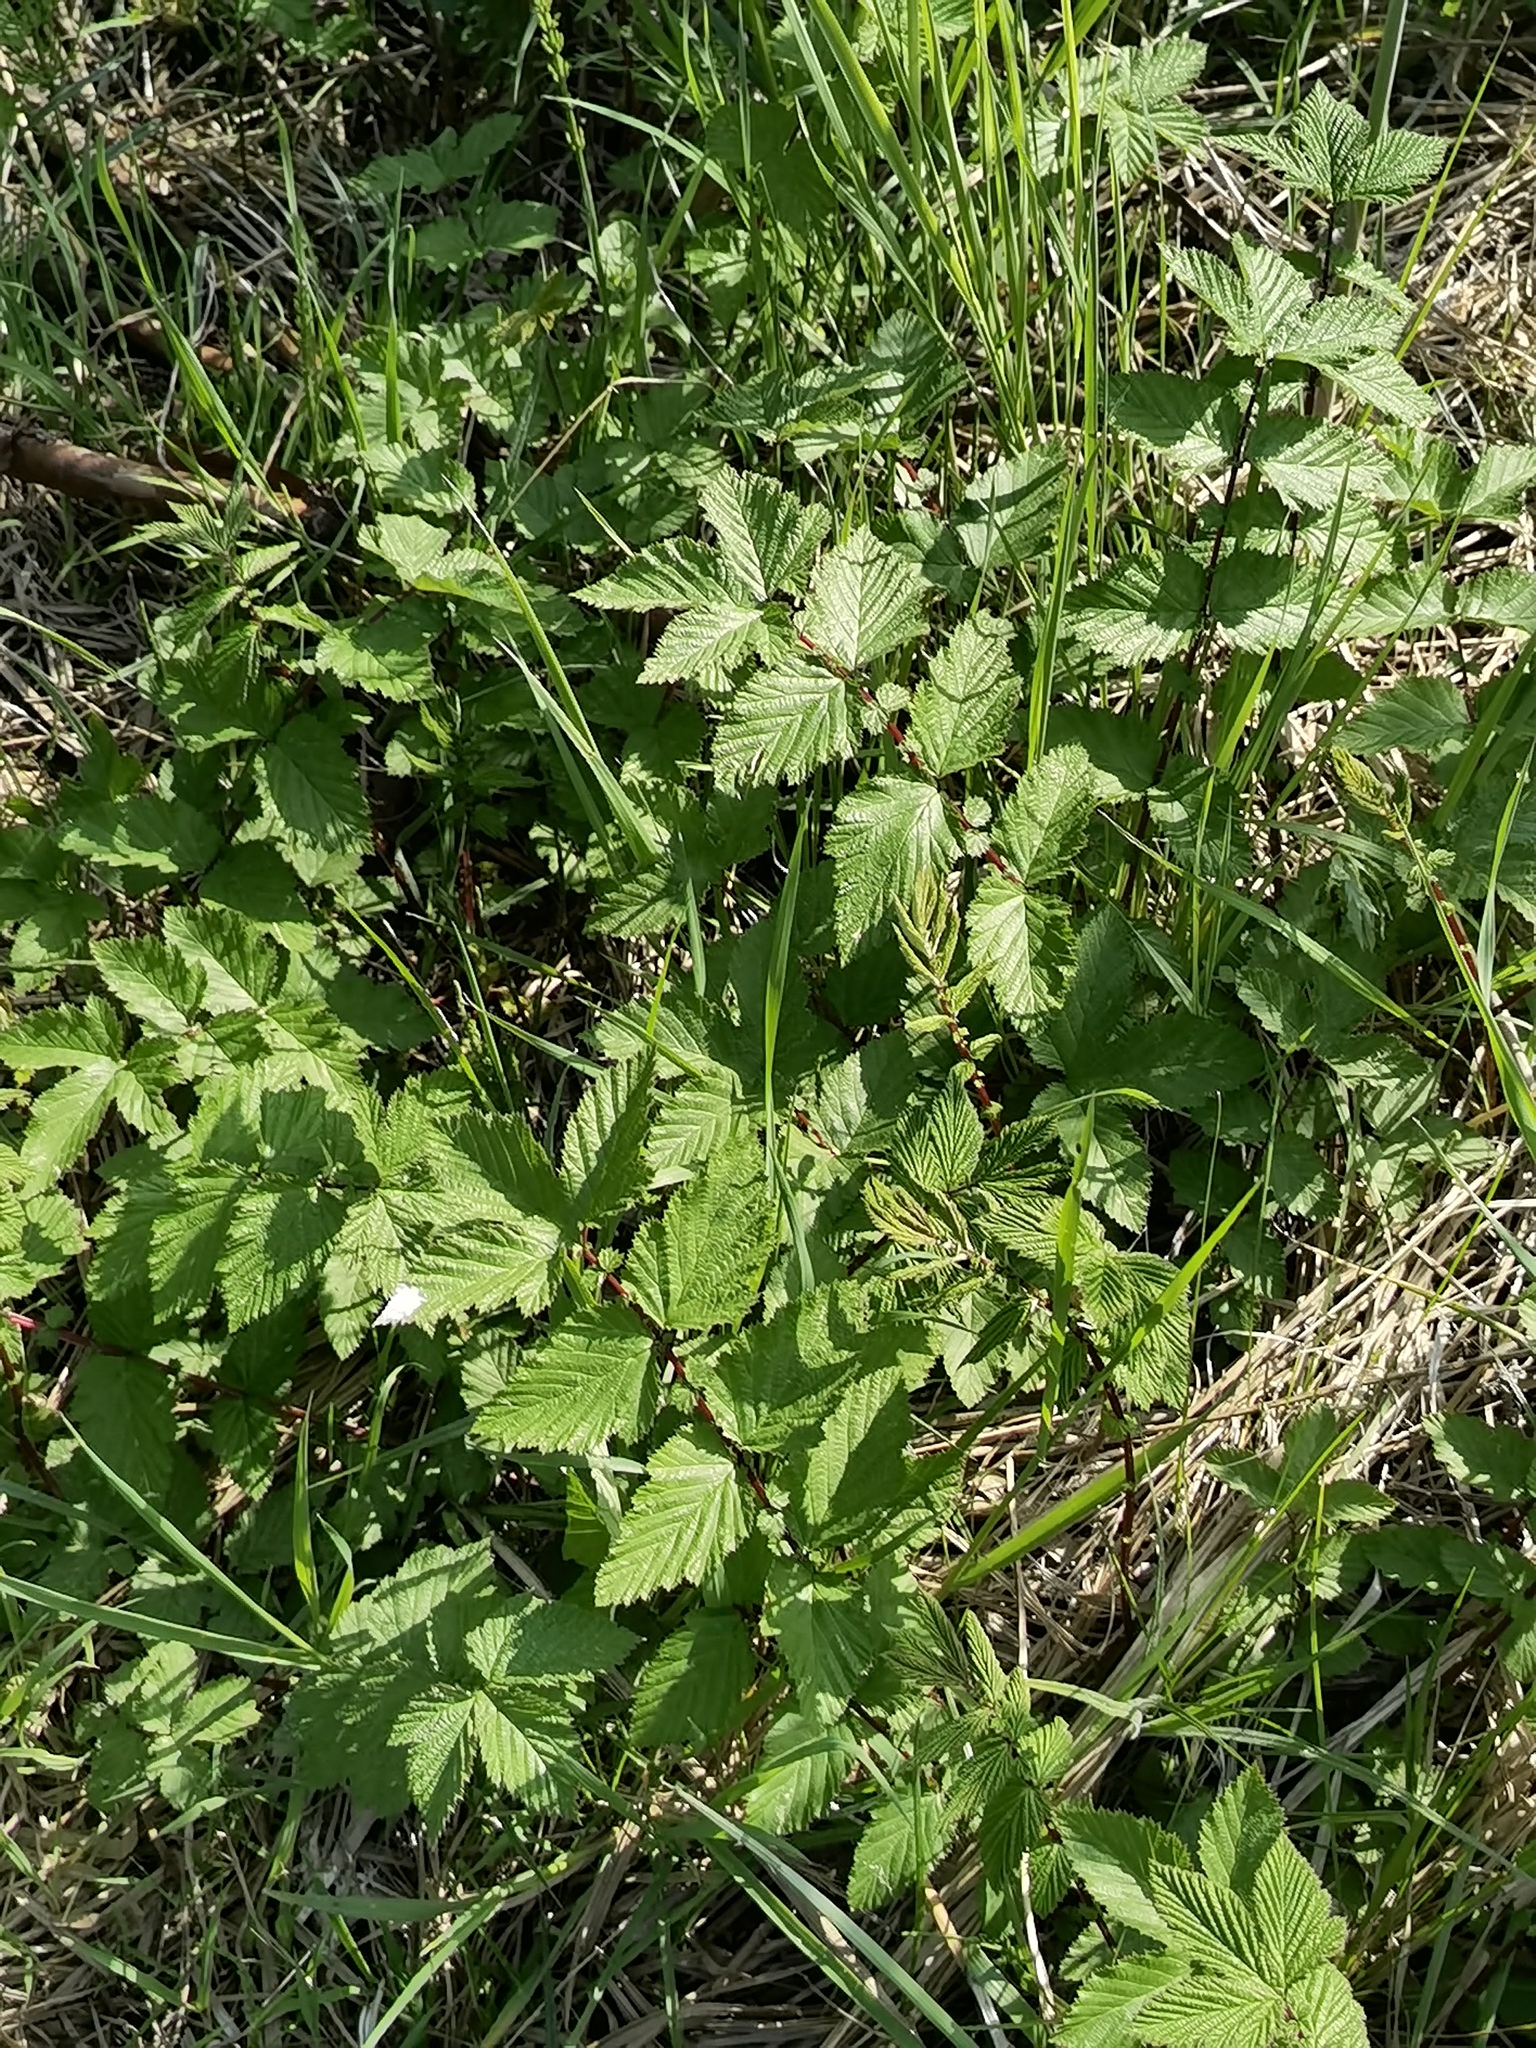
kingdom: Plantae
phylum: Tracheophyta
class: Magnoliopsida
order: Rosales
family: Rosaceae
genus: Filipendula
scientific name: Filipendula ulmaria
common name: Meadowsweet
